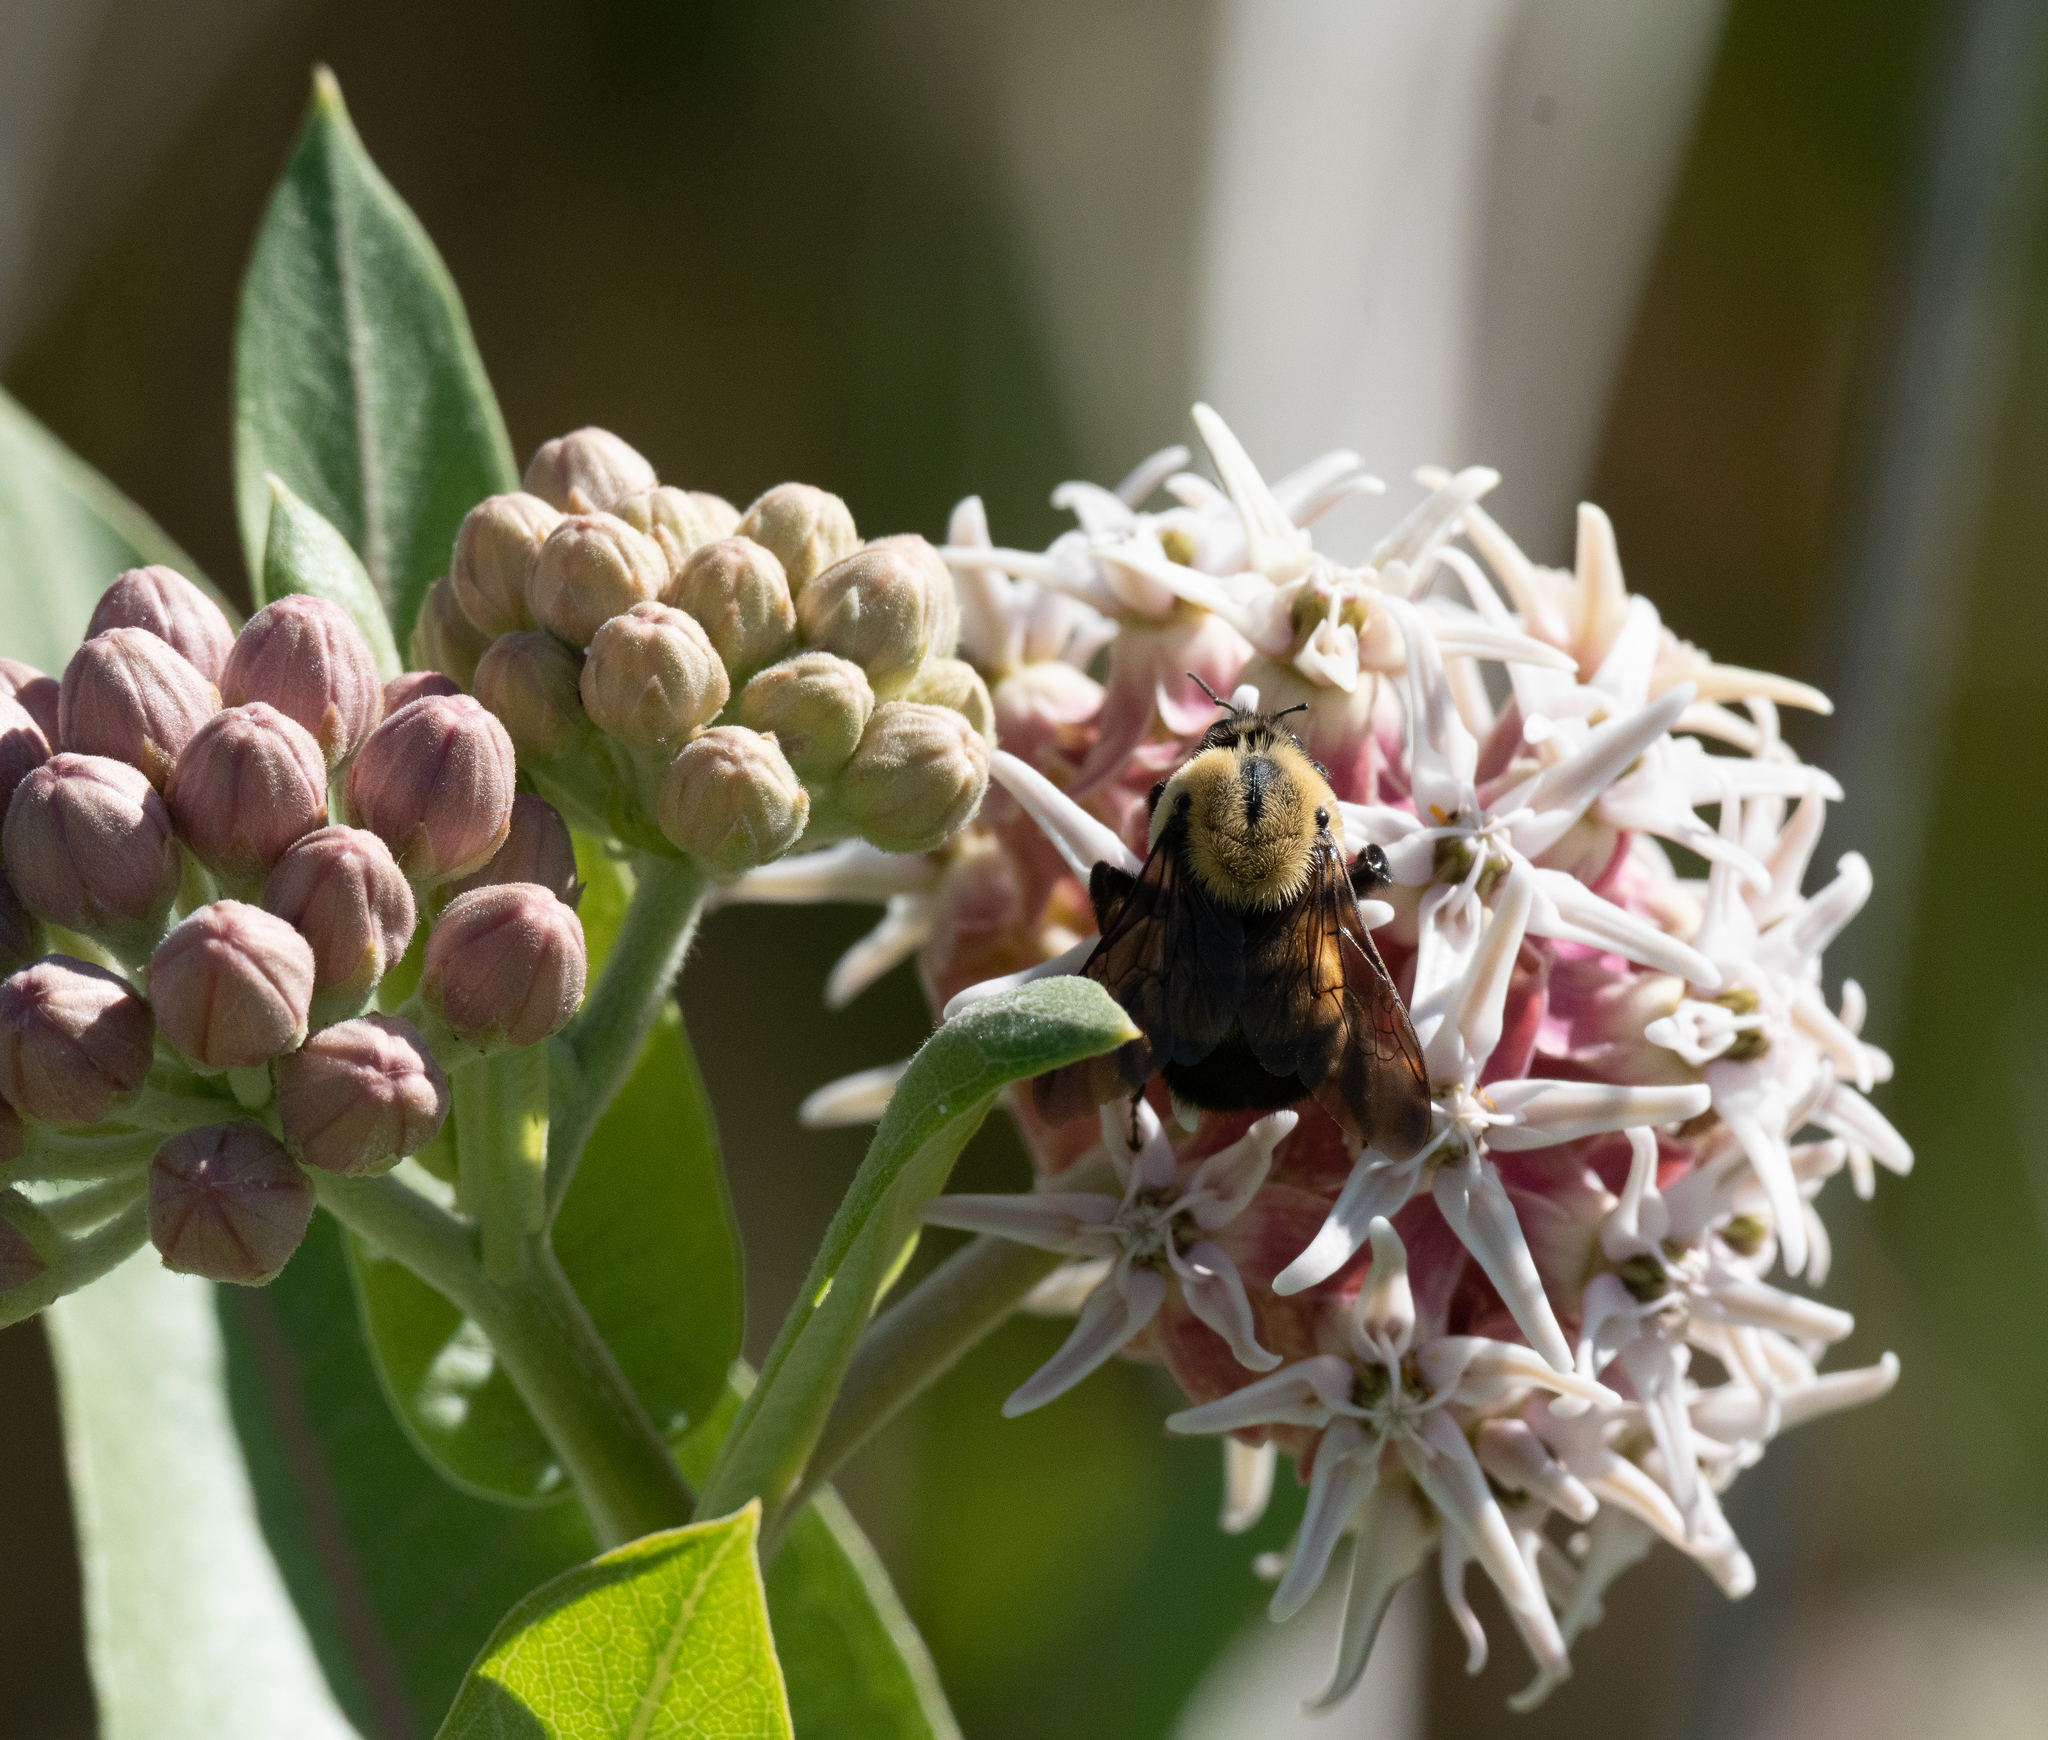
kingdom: Animalia
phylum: Arthropoda
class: Insecta
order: Hymenoptera
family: Apidae
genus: Bombus
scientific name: Bombus griseocollis
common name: Brown-belted bumble bee
